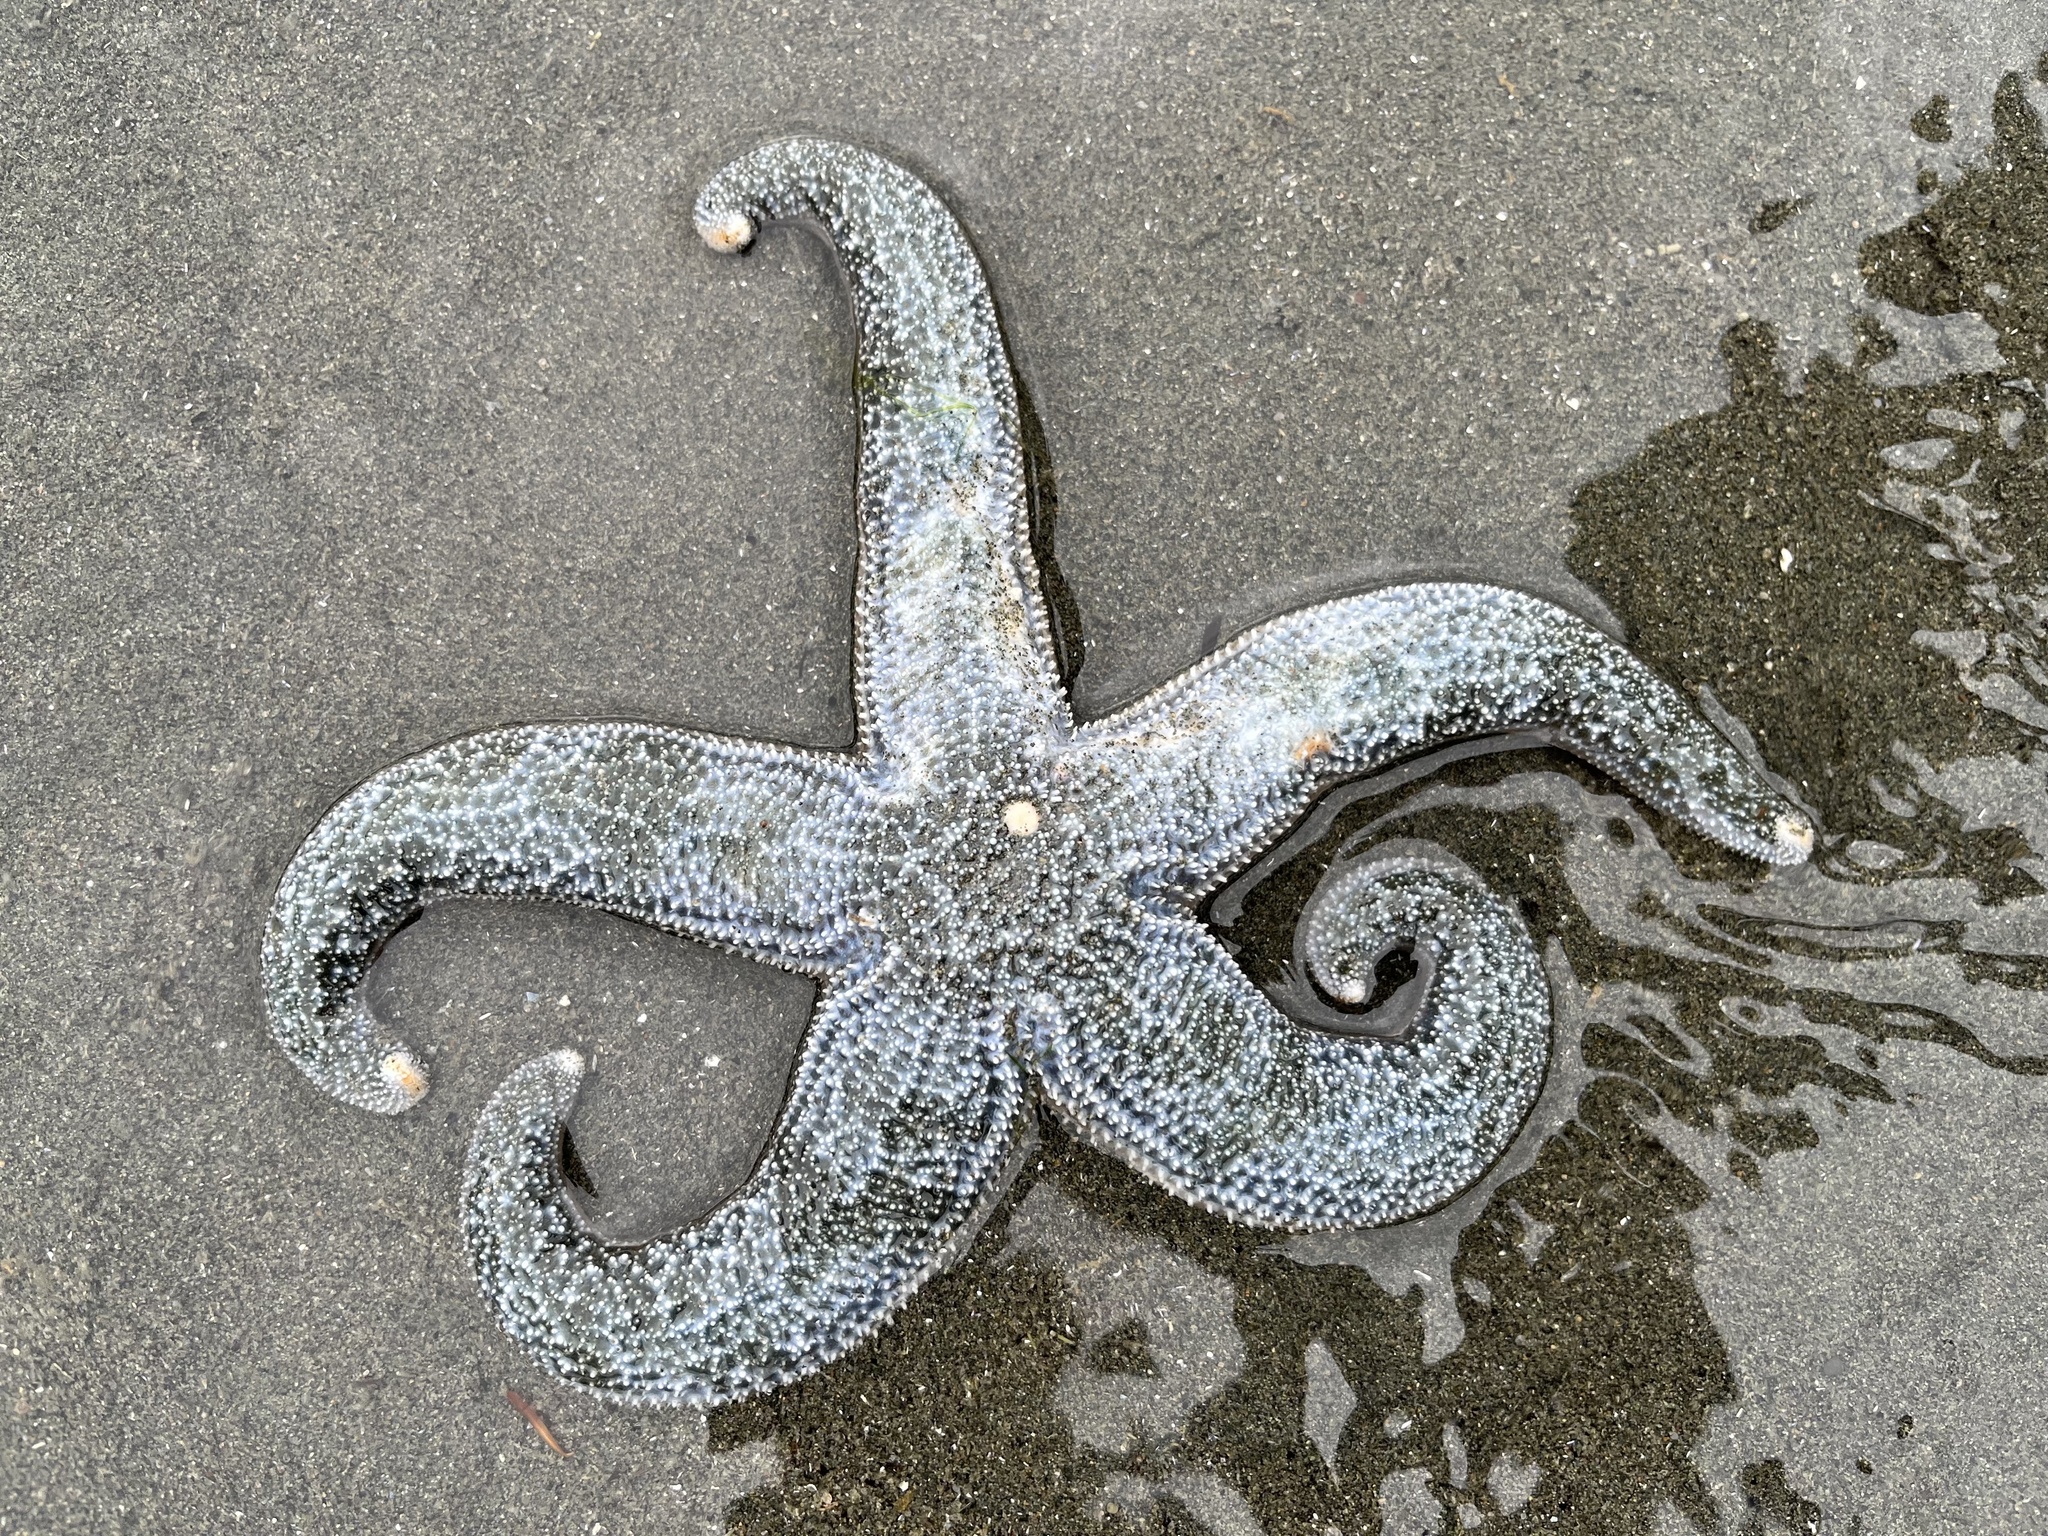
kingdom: Animalia
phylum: Echinodermata
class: Asteroidea
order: Forcipulatida
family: Asteriidae
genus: Evasterias
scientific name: Evasterias troschelii
